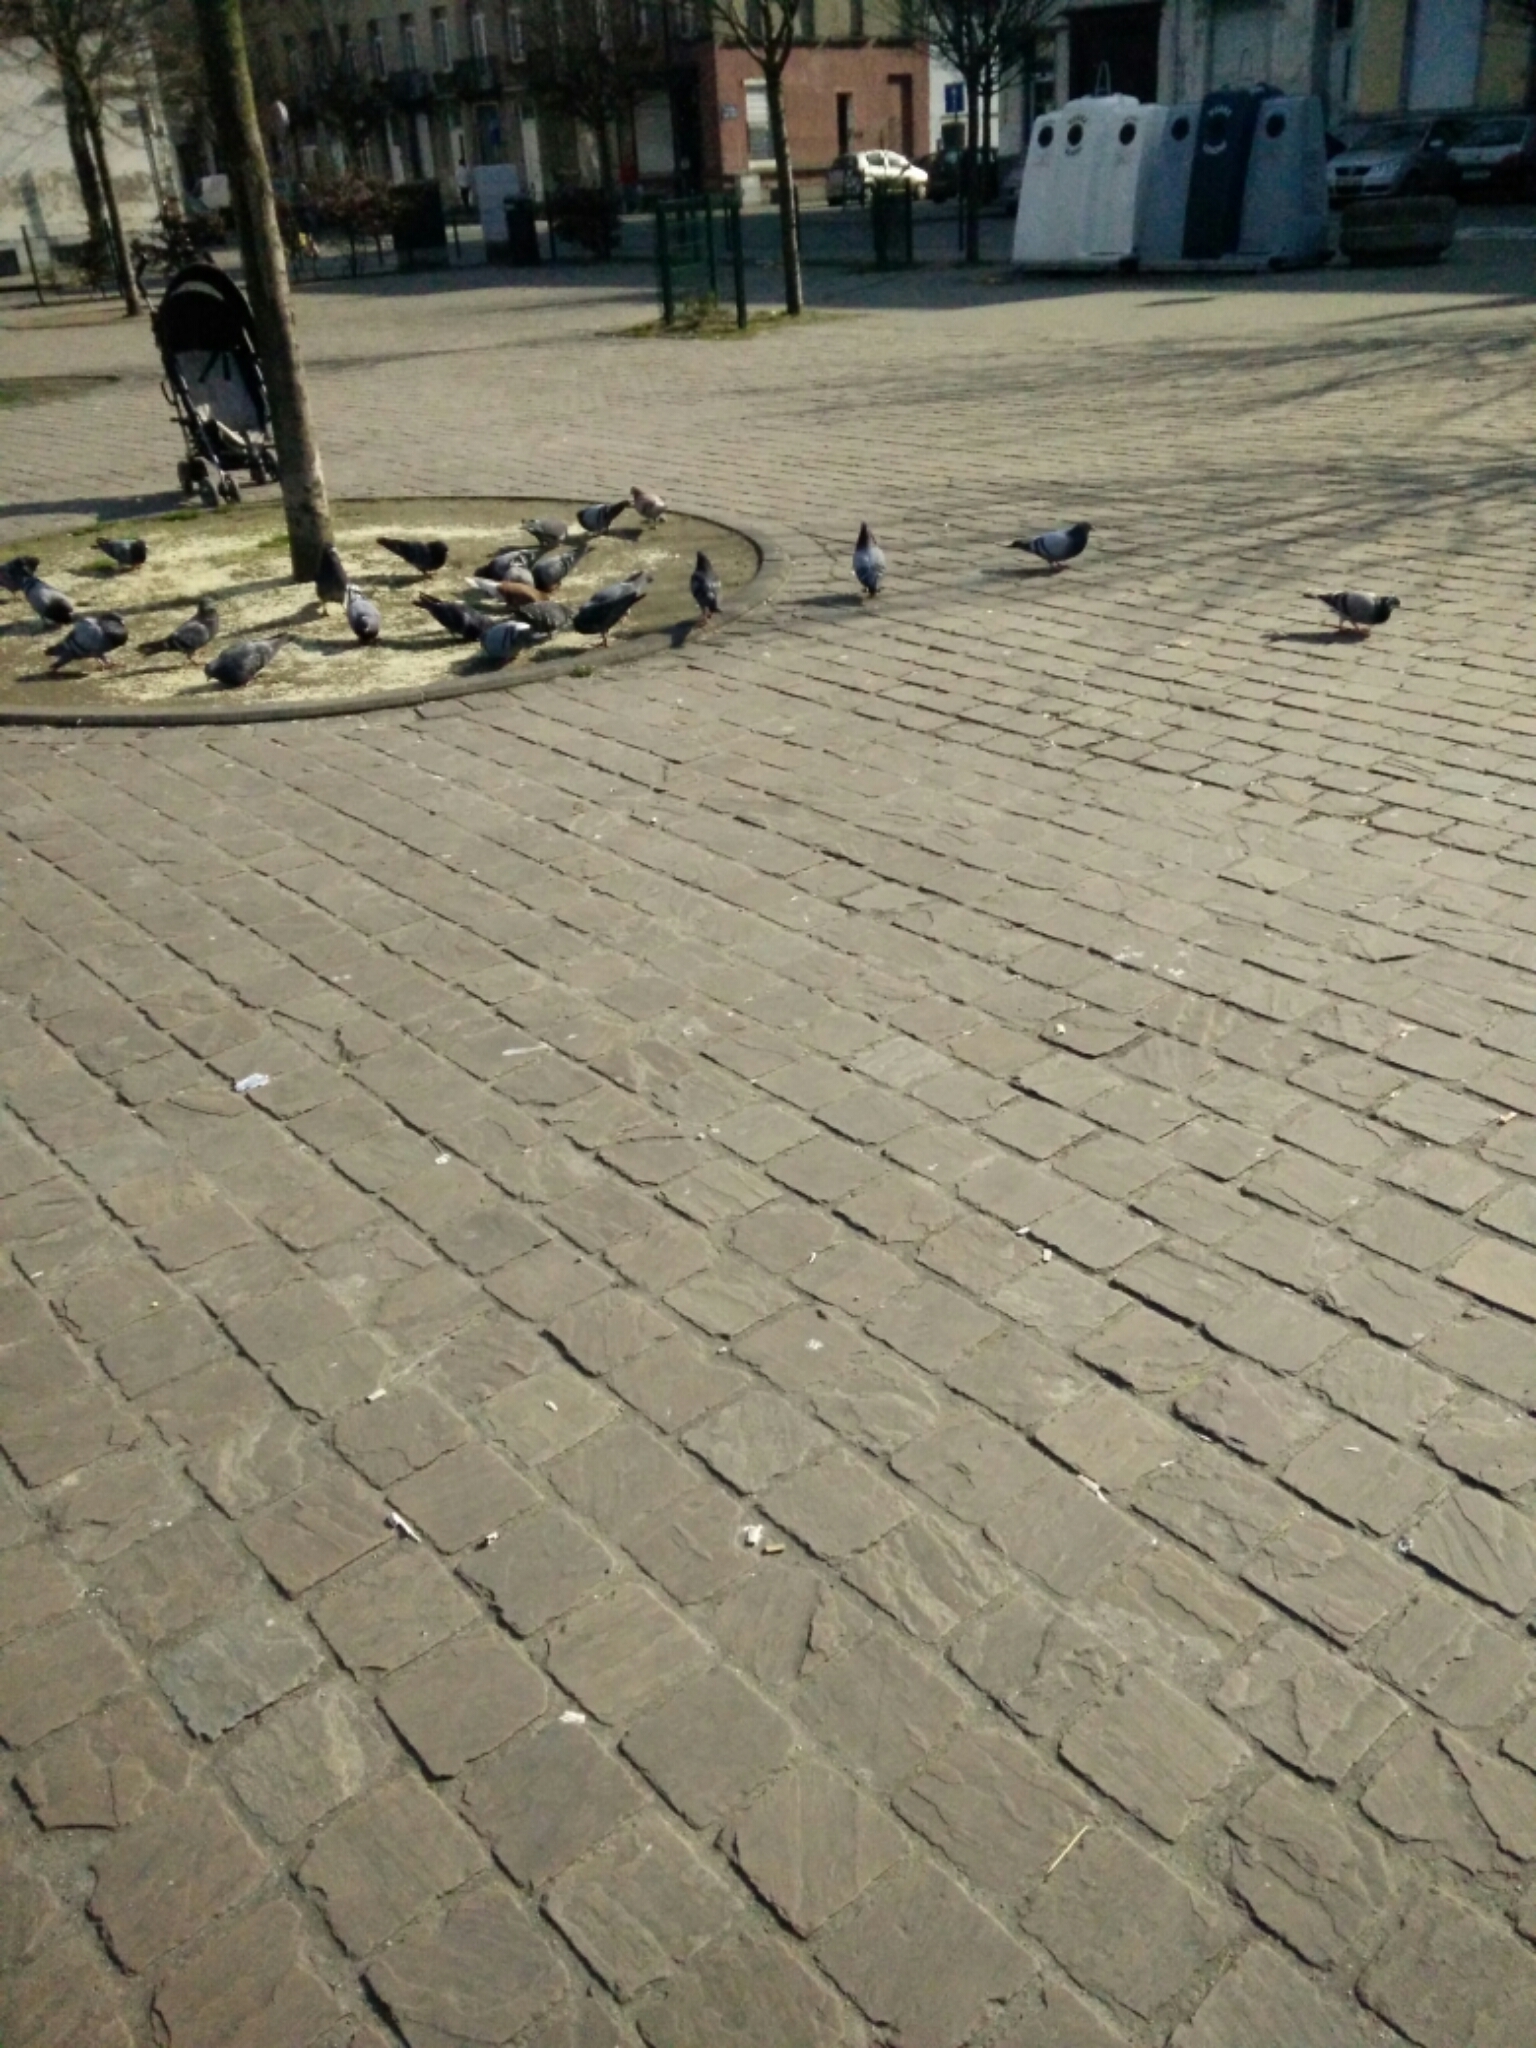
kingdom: Animalia
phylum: Chordata
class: Aves
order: Columbiformes
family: Columbidae
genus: Columba
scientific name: Columba livia
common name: Rock pigeon
